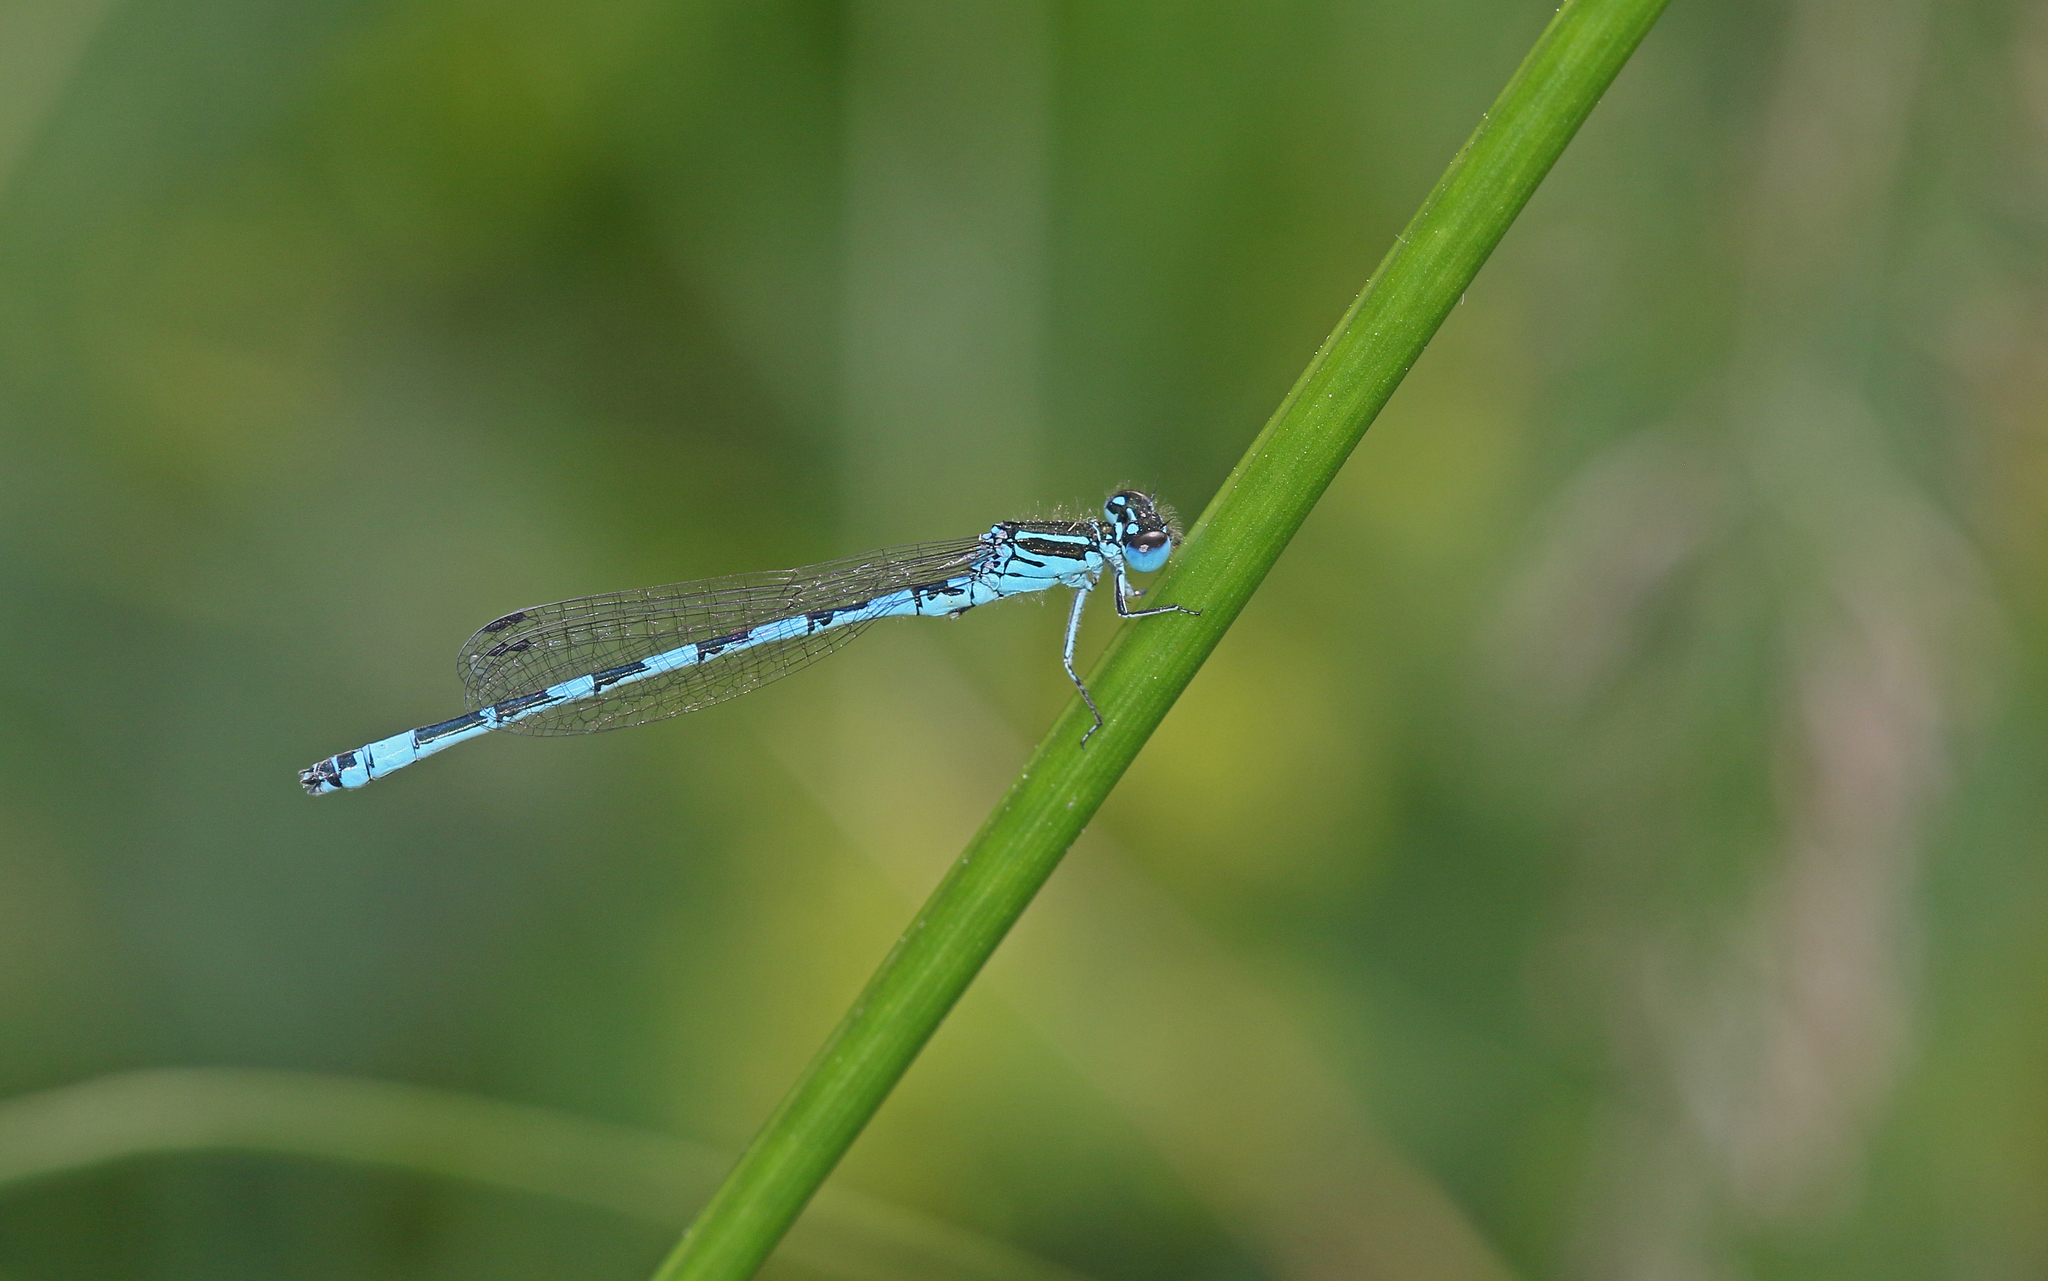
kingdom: Animalia
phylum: Arthropoda
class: Insecta
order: Odonata
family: Coenagrionidae
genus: Coenagrion
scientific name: Coenagrion mercuriale
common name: Southern damselfly
